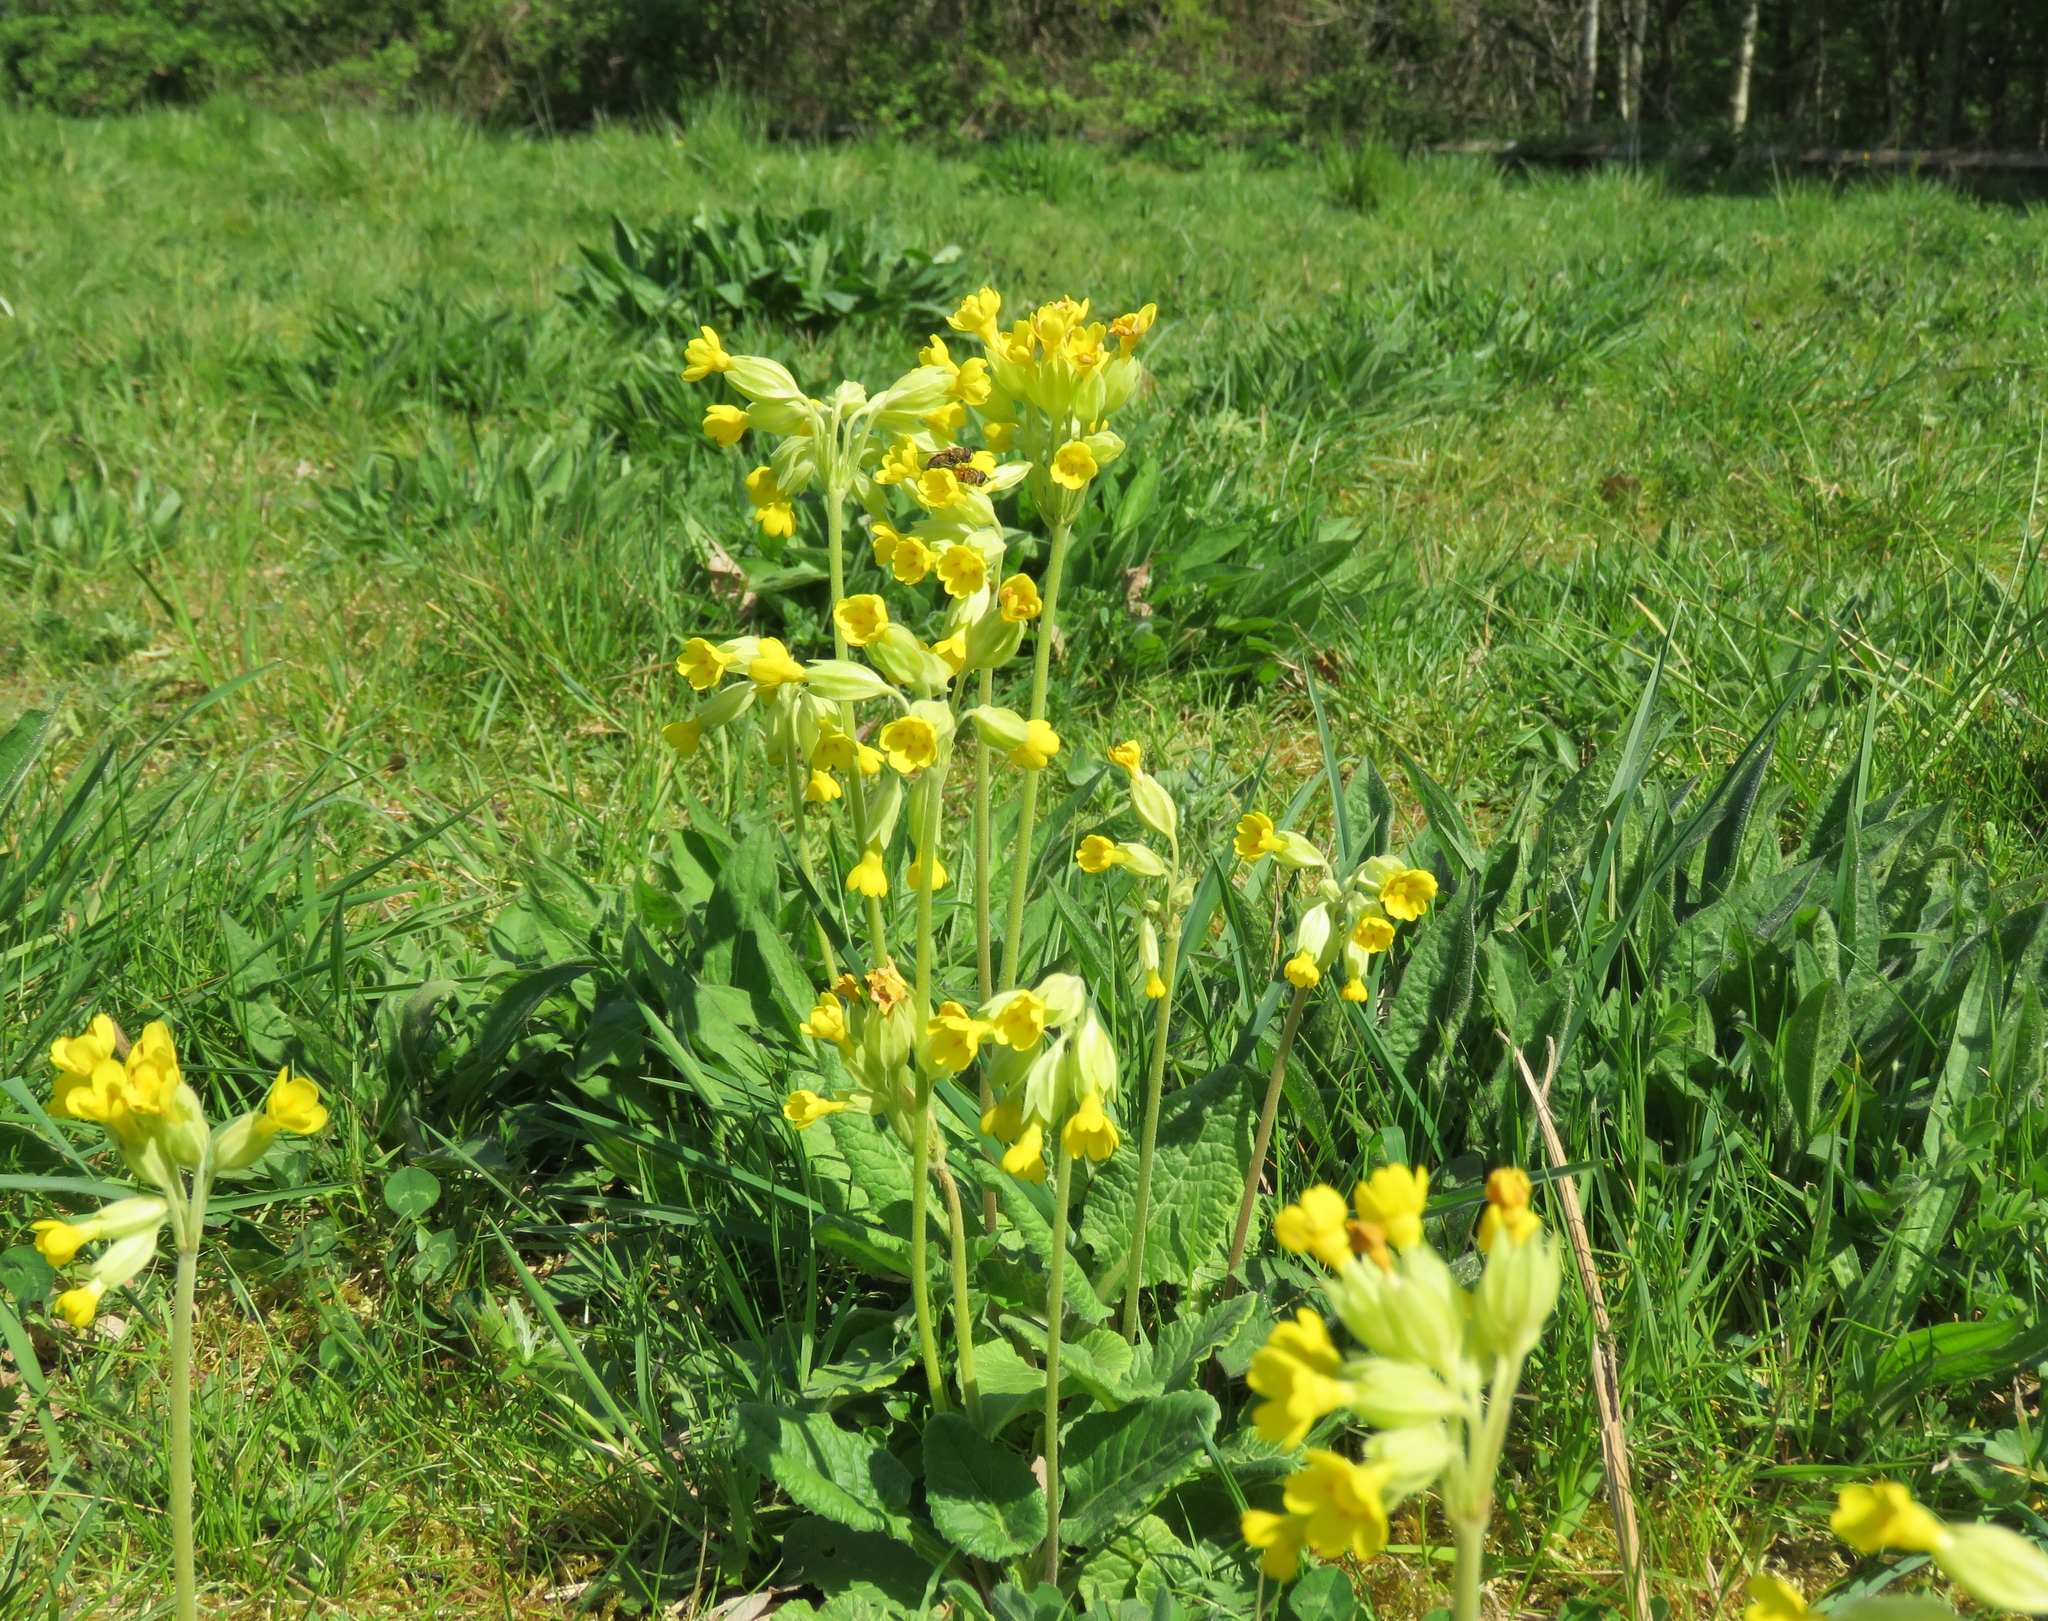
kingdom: Plantae
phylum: Tracheophyta
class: Magnoliopsida
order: Ericales
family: Primulaceae
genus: Primula
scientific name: Primula veris
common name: Cowslip
